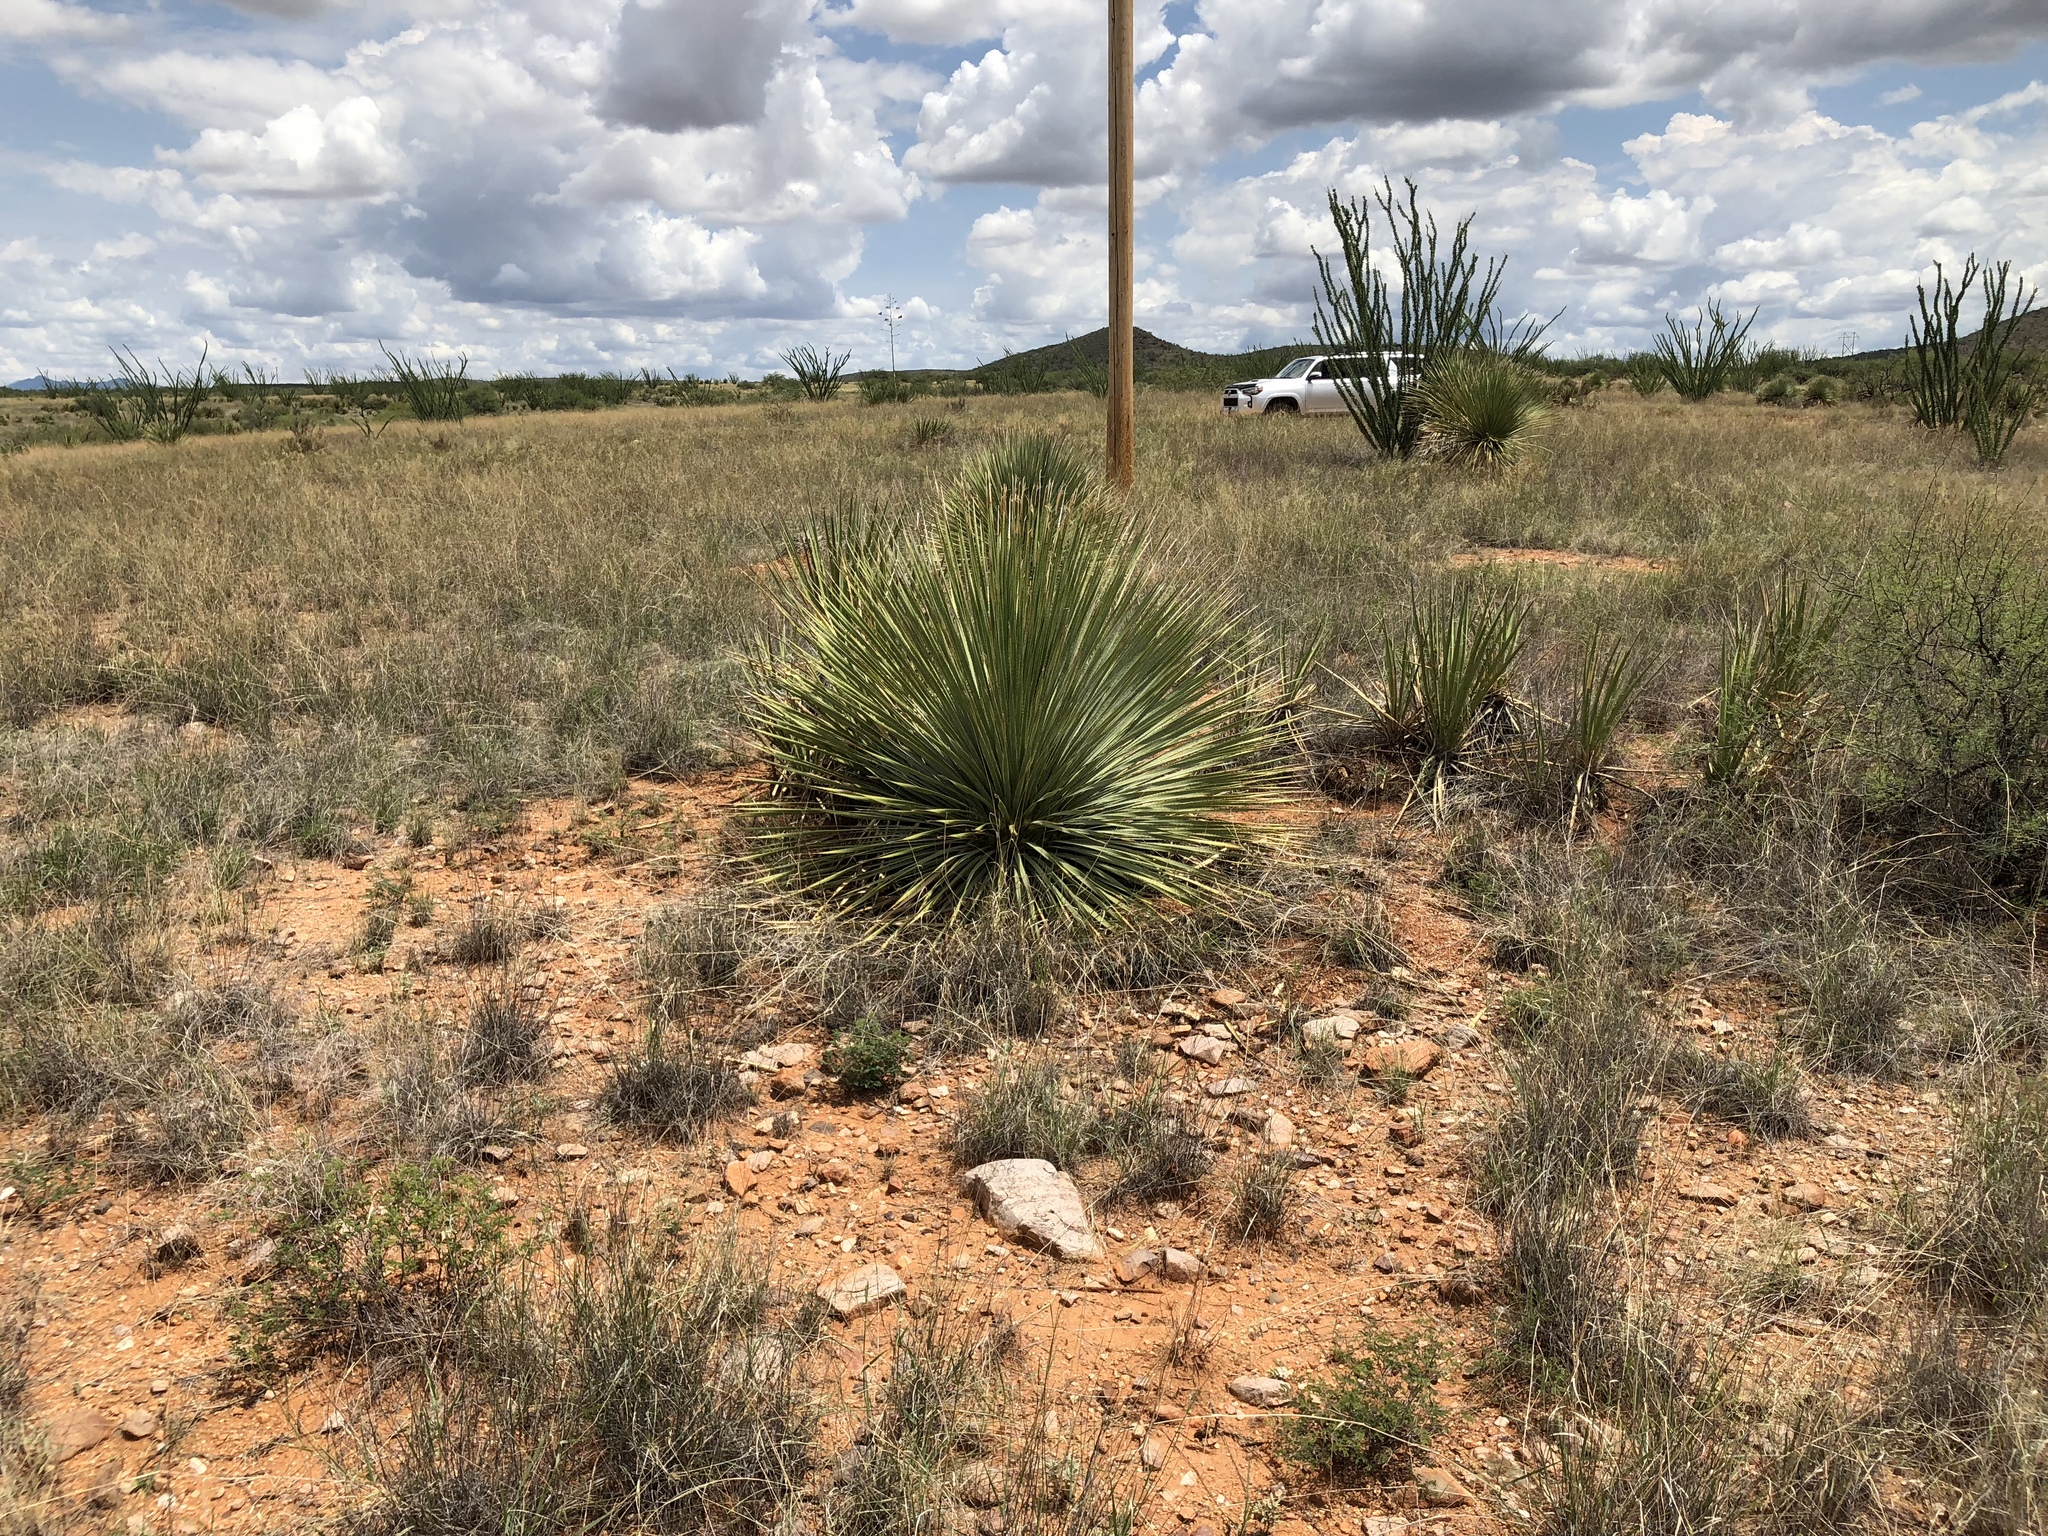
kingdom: Plantae
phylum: Tracheophyta
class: Liliopsida
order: Asparagales
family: Asparagaceae
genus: Dasylirion
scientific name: Dasylirion wheeleri
